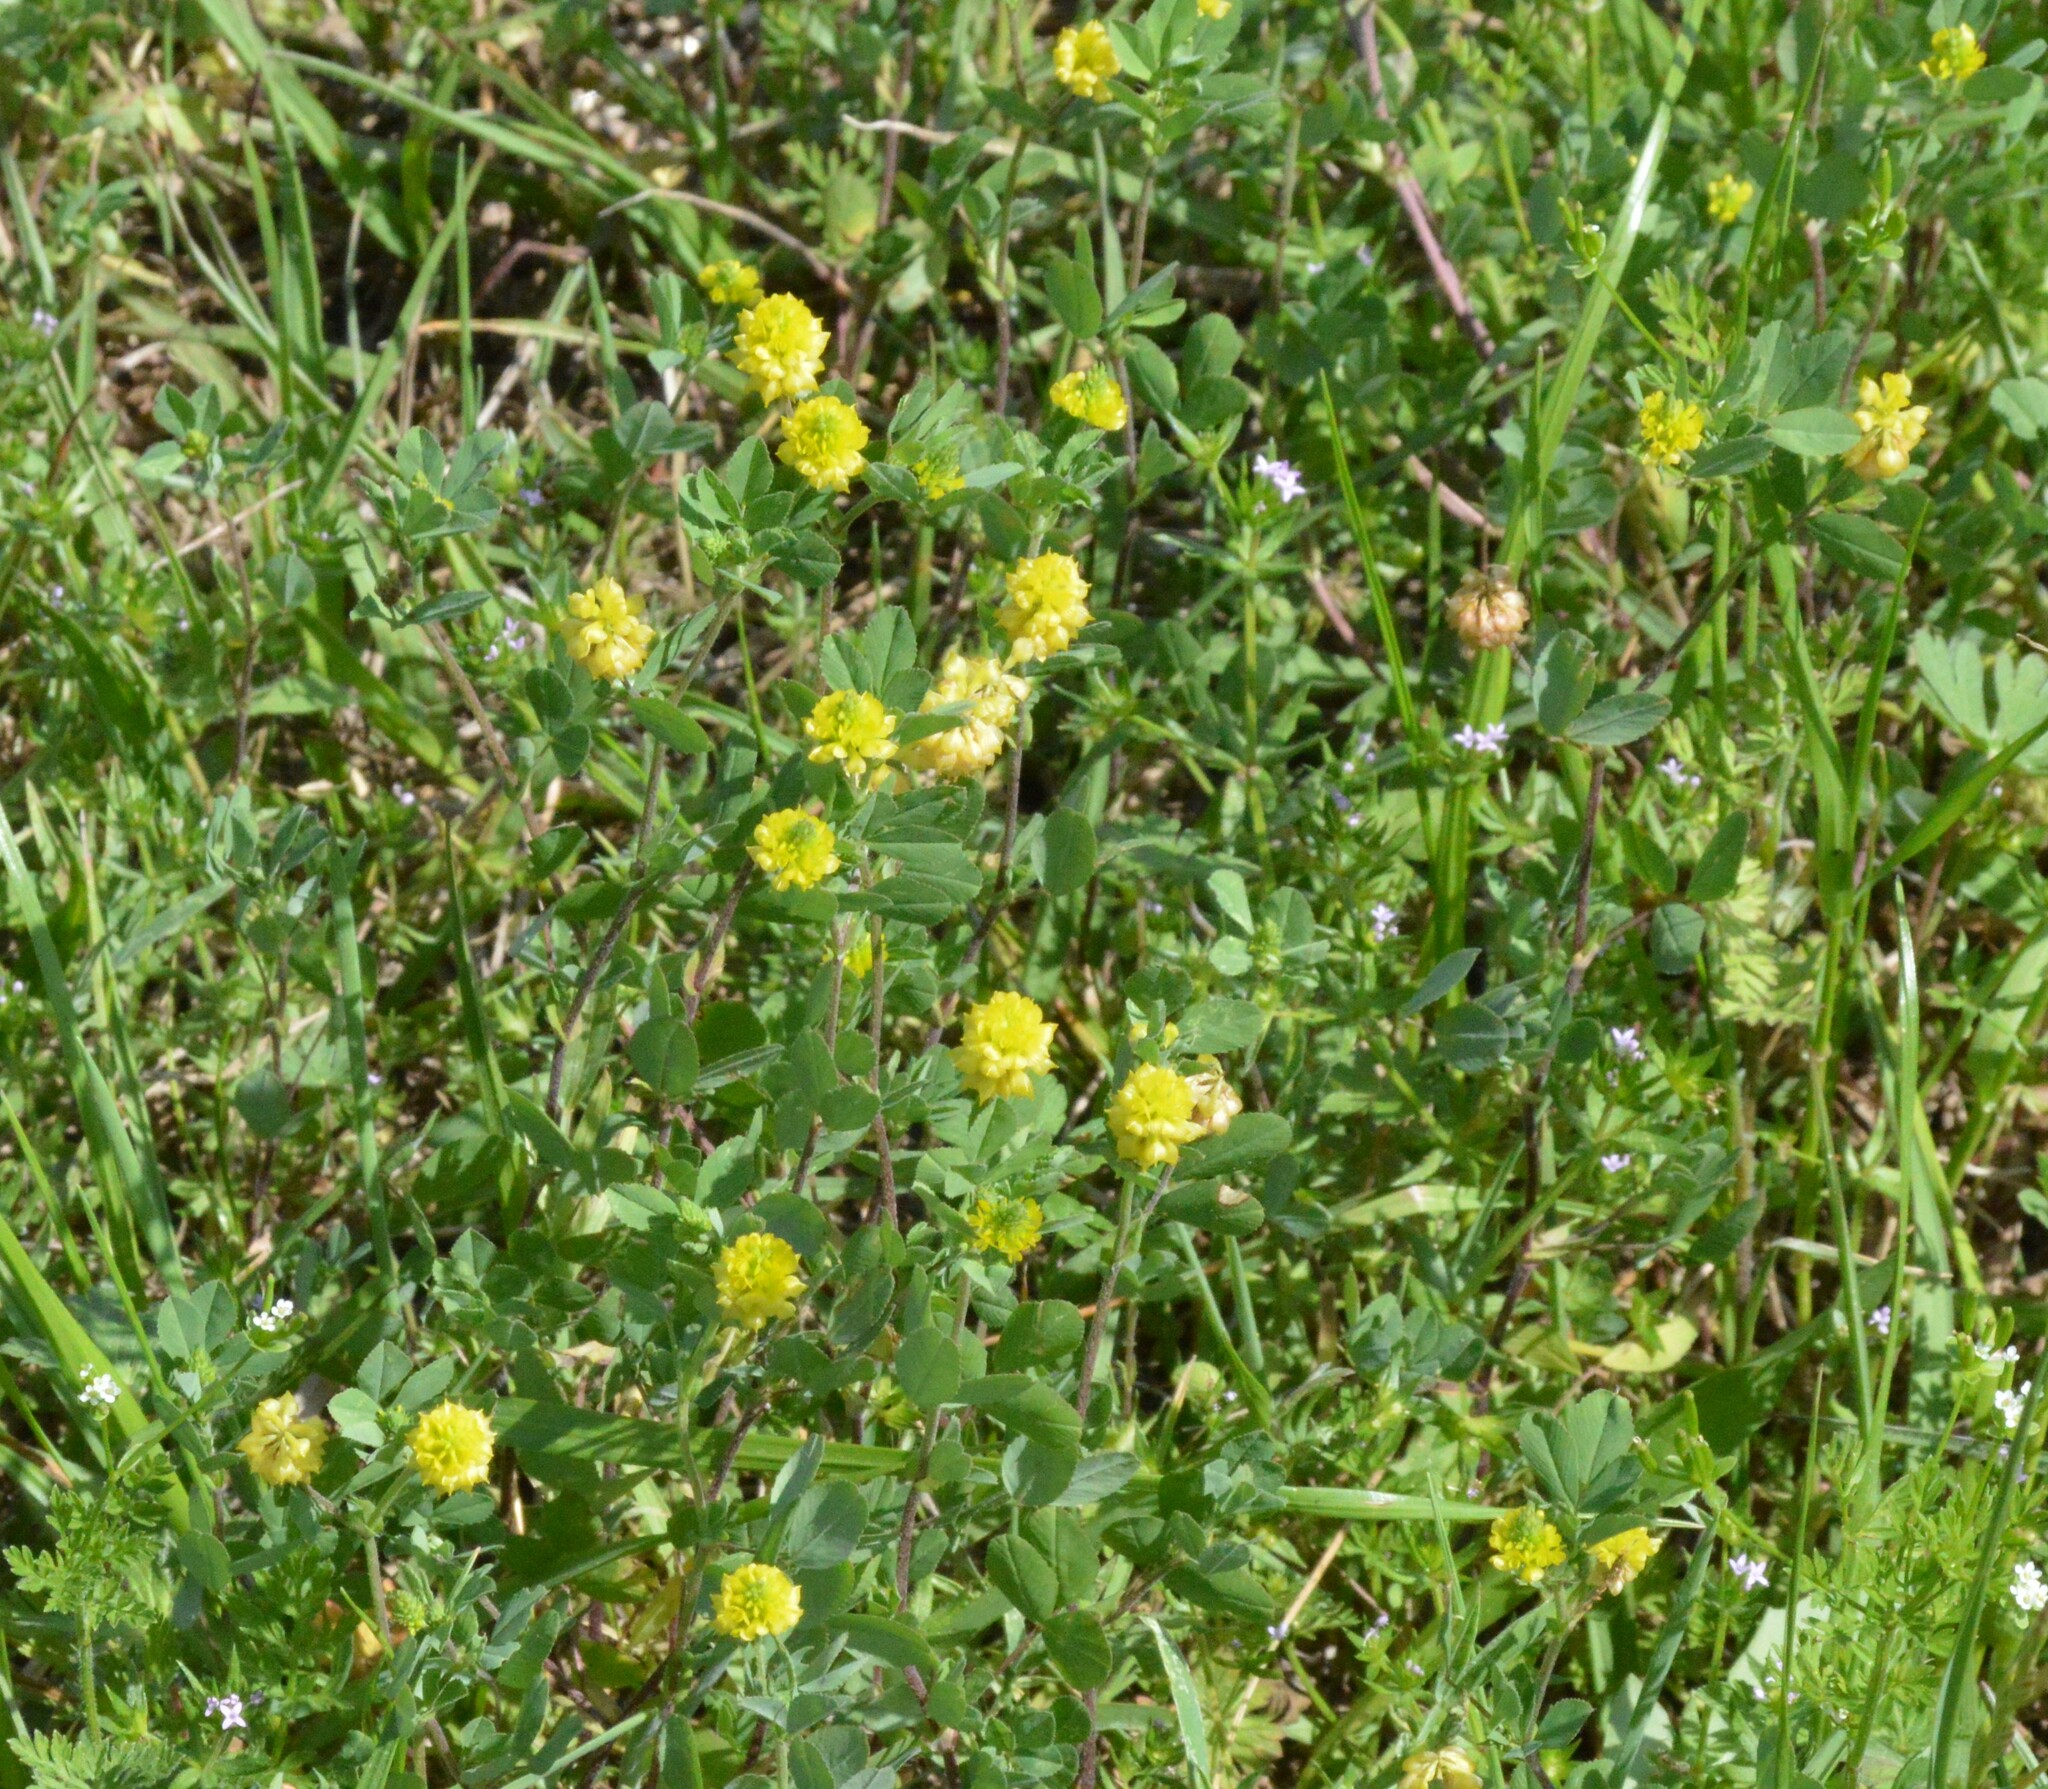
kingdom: Plantae
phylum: Tracheophyta
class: Magnoliopsida
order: Fabales
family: Fabaceae
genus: Trifolium
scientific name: Trifolium campestre
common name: Field clover
